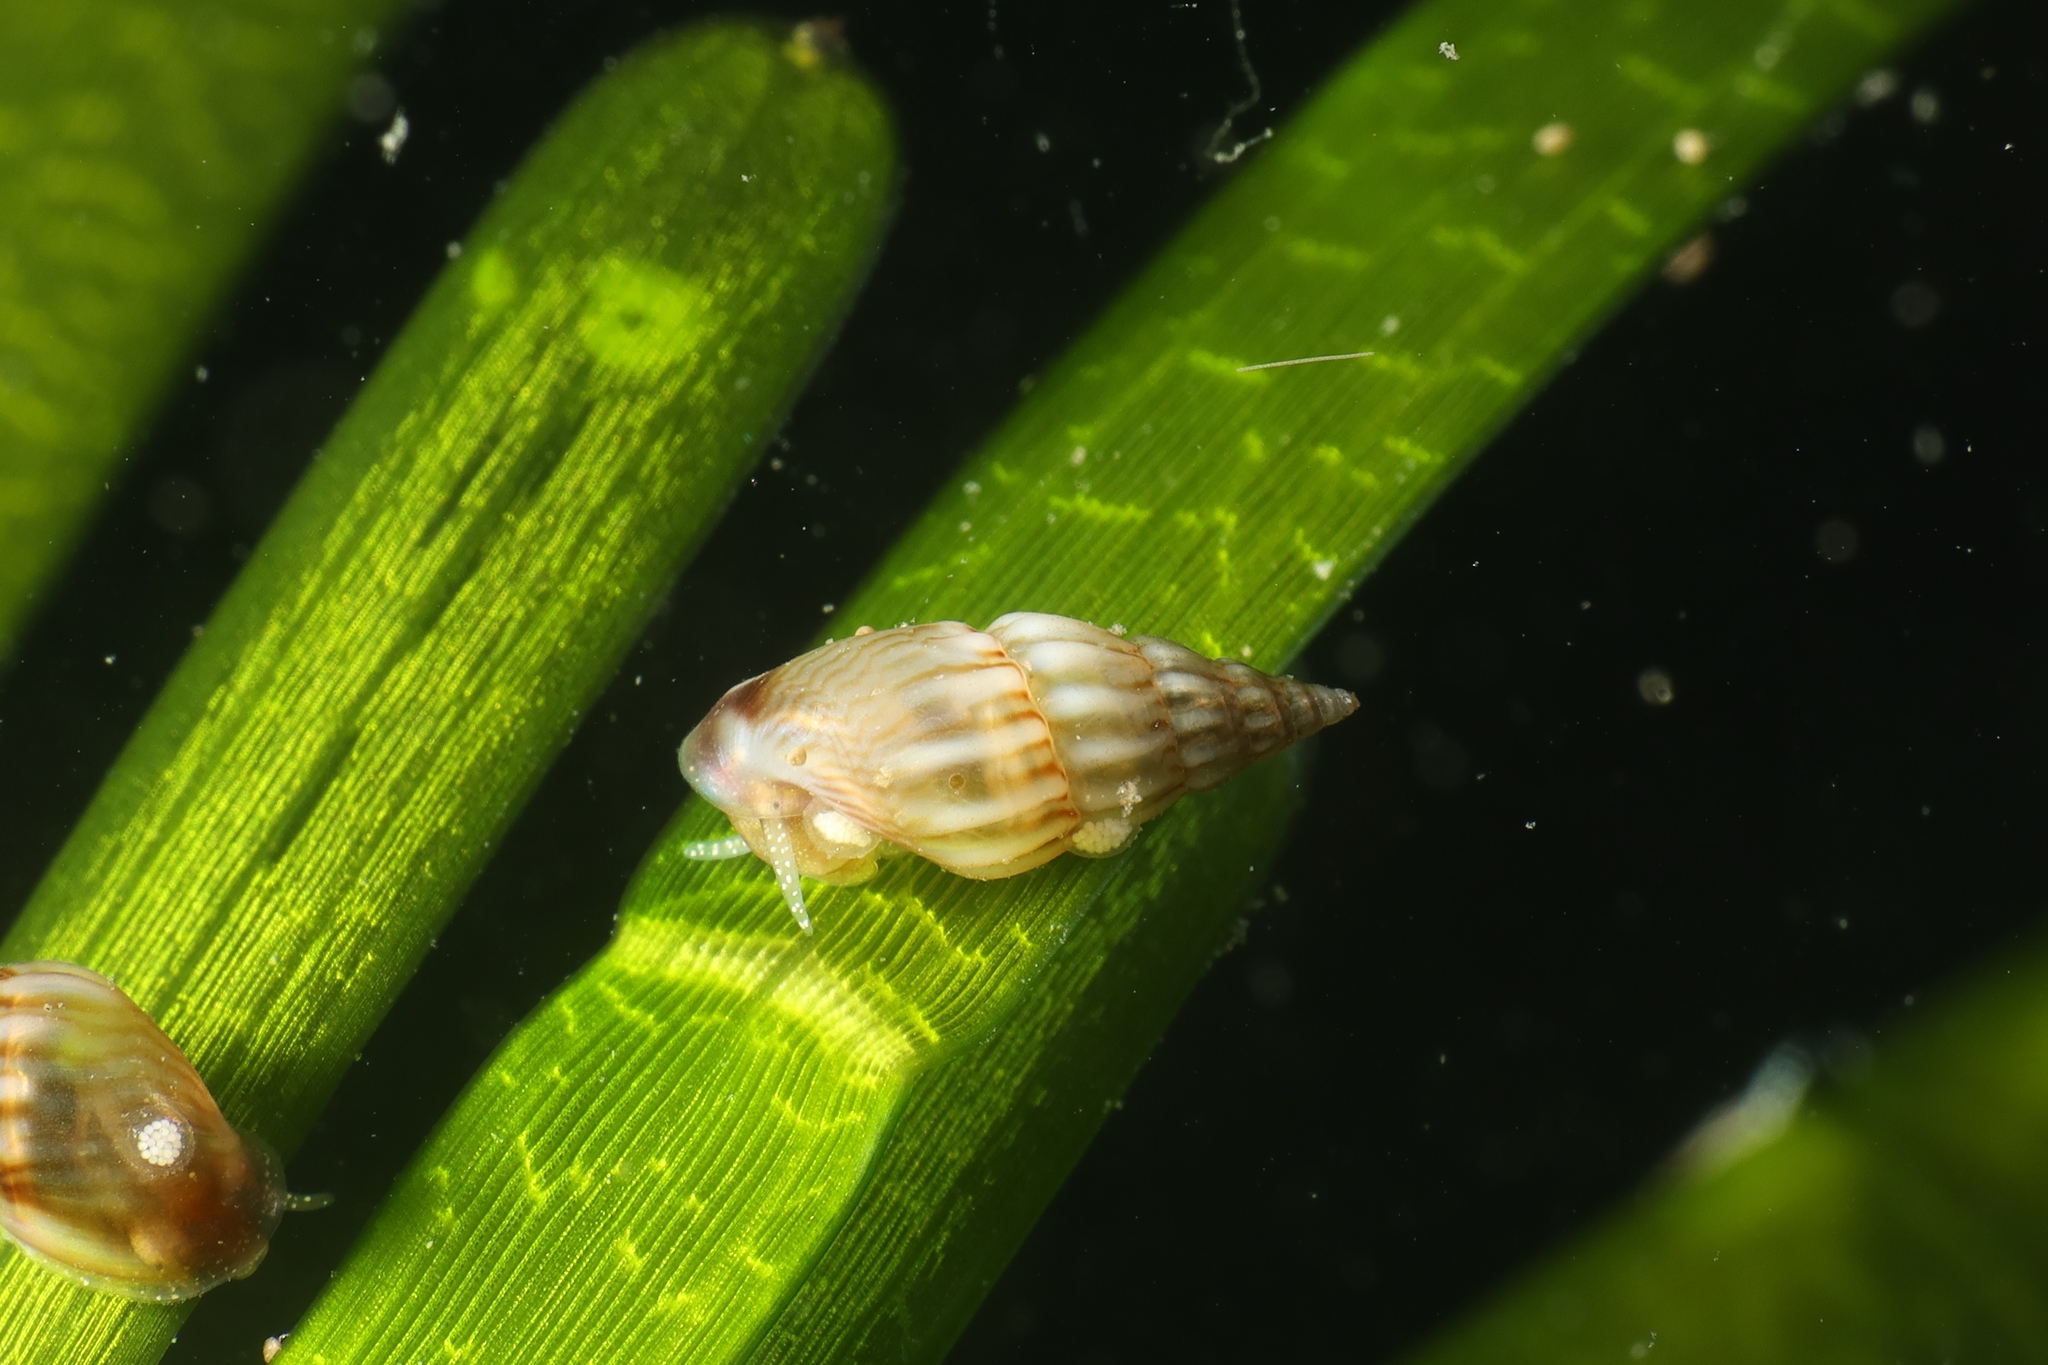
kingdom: Animalia
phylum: Mollusca
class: Gastropoda
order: Littorinimorpha
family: Rissoidae
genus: Rissoa
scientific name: Rissoa membranacea
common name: Thick-lipped risso snail
